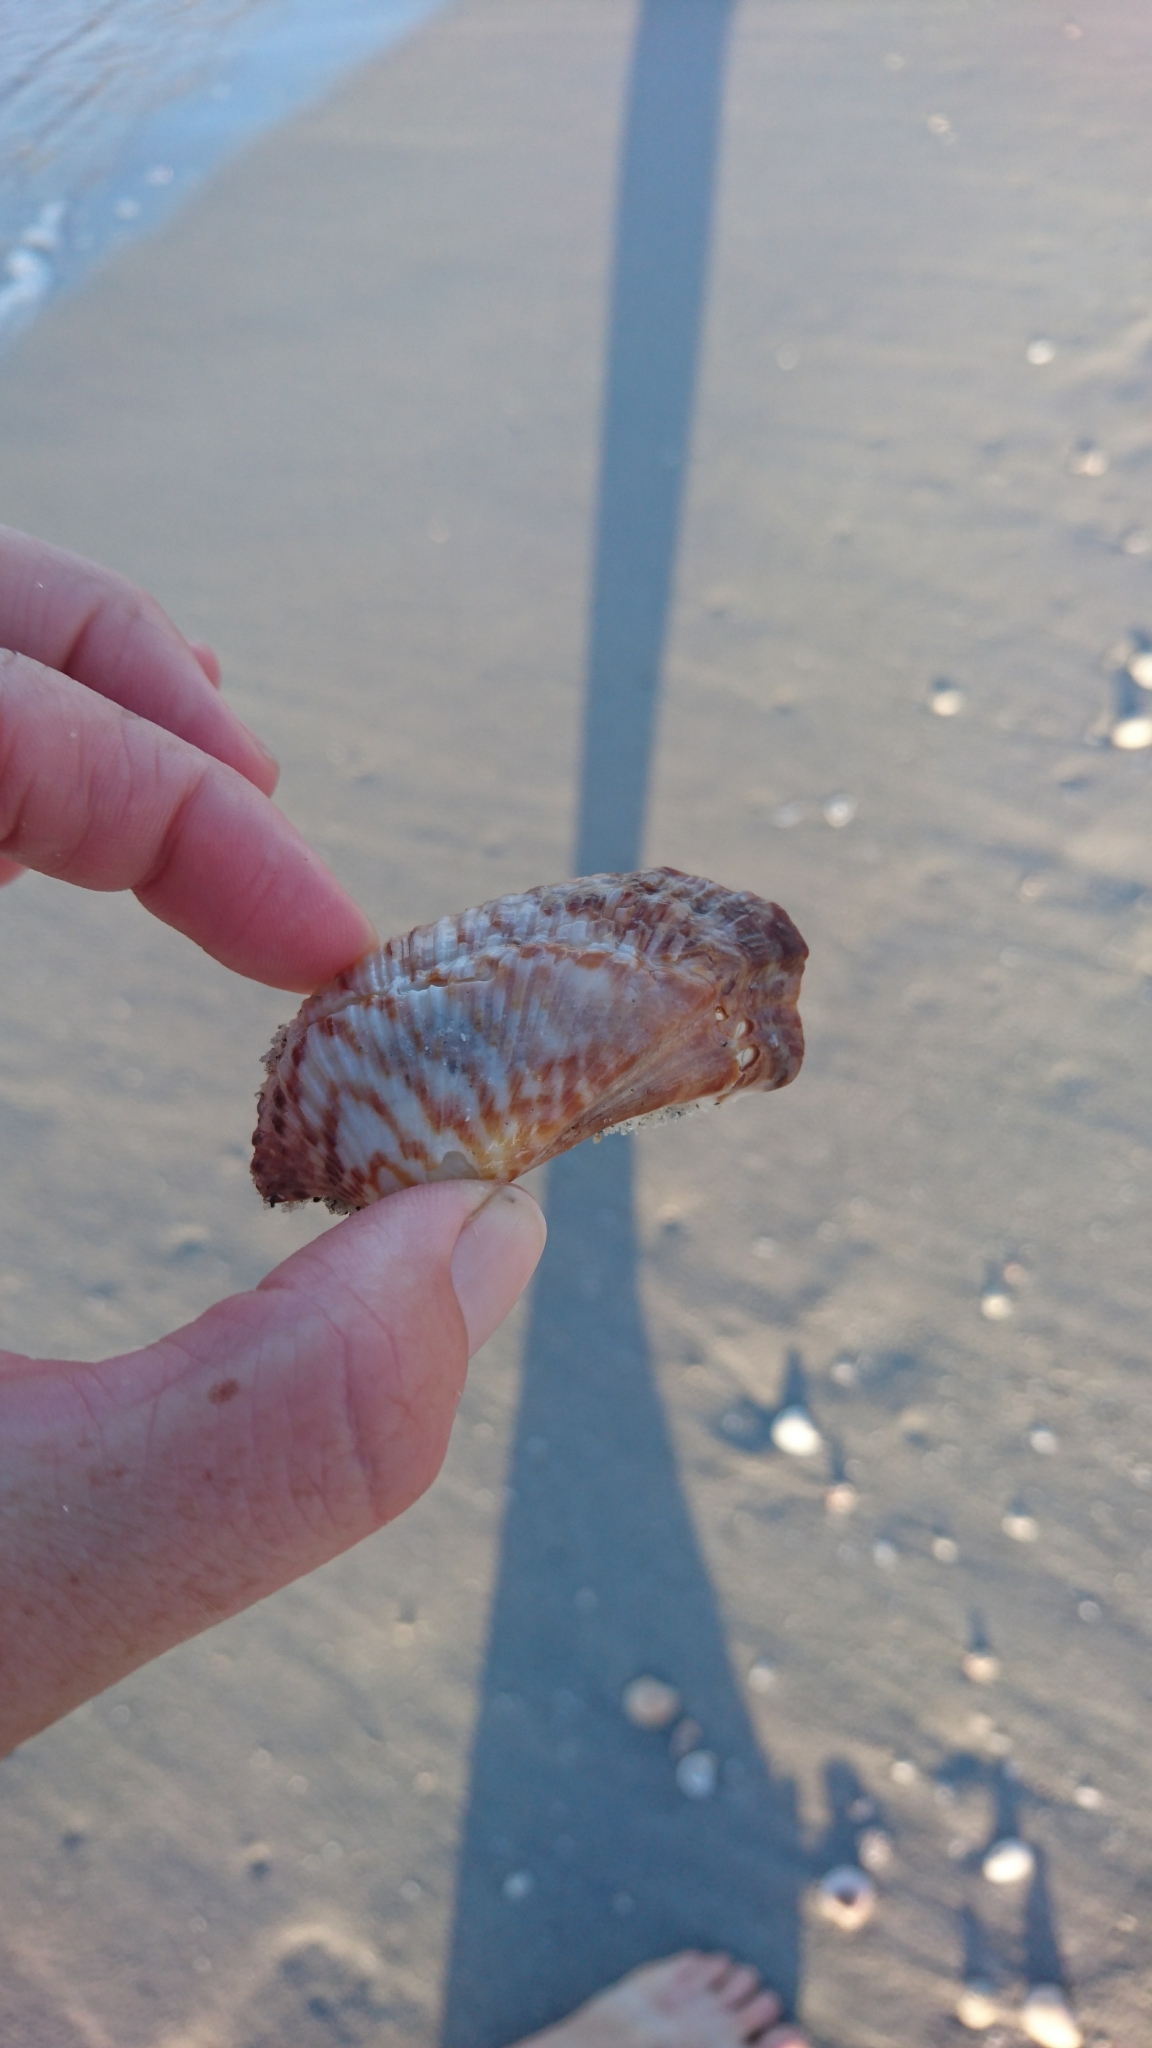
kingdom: Animalia
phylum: Mollusca
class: Bivalvia
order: Arcida
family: Arcidae
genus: Arca
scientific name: Arca zebra
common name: Atlantic turkey wing
